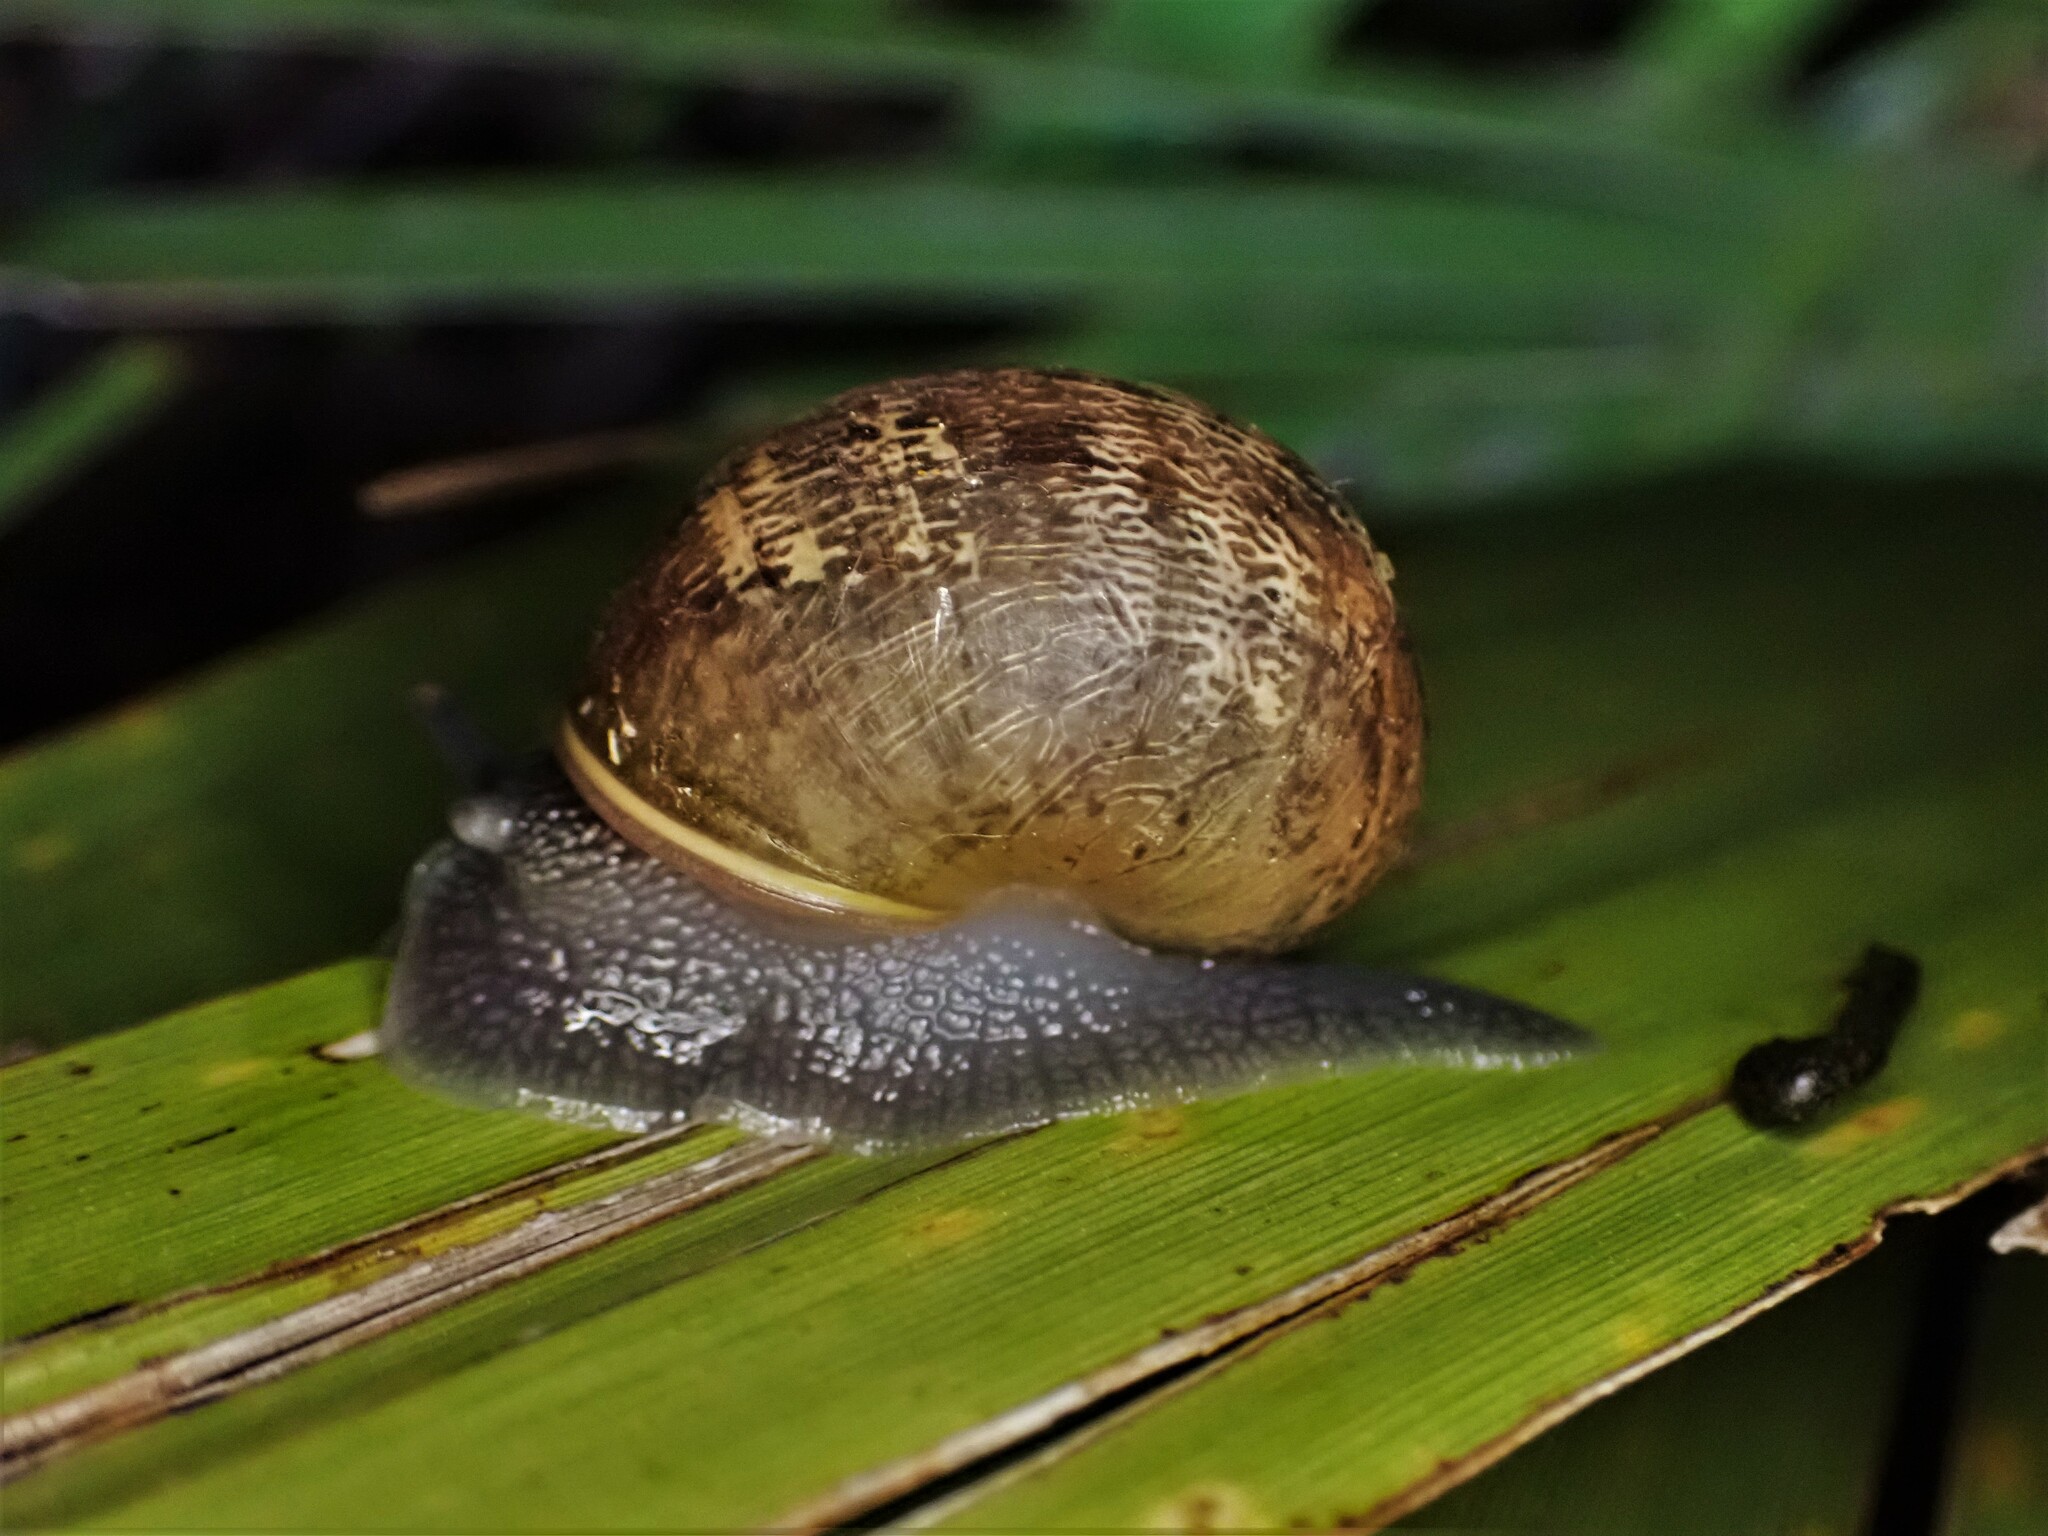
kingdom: Animalia
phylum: Mollusca
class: Gastropoda
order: Stylommatophora
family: Helicidae
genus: Cornu
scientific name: Cornu aspersum
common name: Brown garden snail
